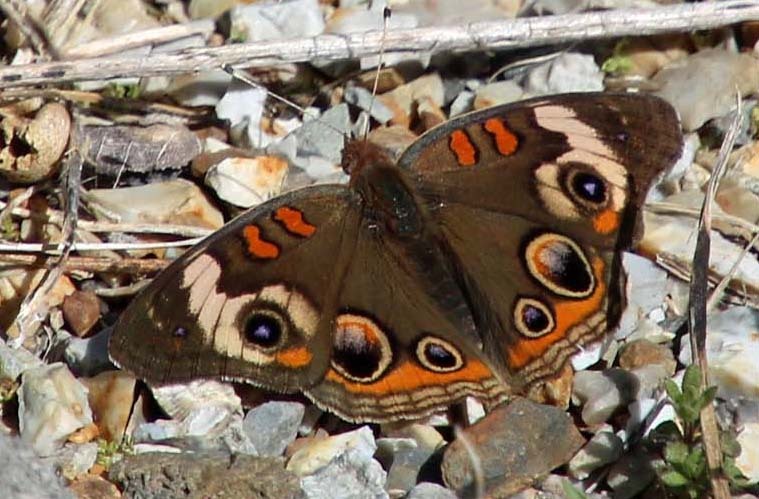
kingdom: Animalia
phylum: Arthropoda
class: Insecta
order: Lepidoptera
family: Nymphalidae
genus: Junonia
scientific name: Junonia coenia
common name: Common buckeye
